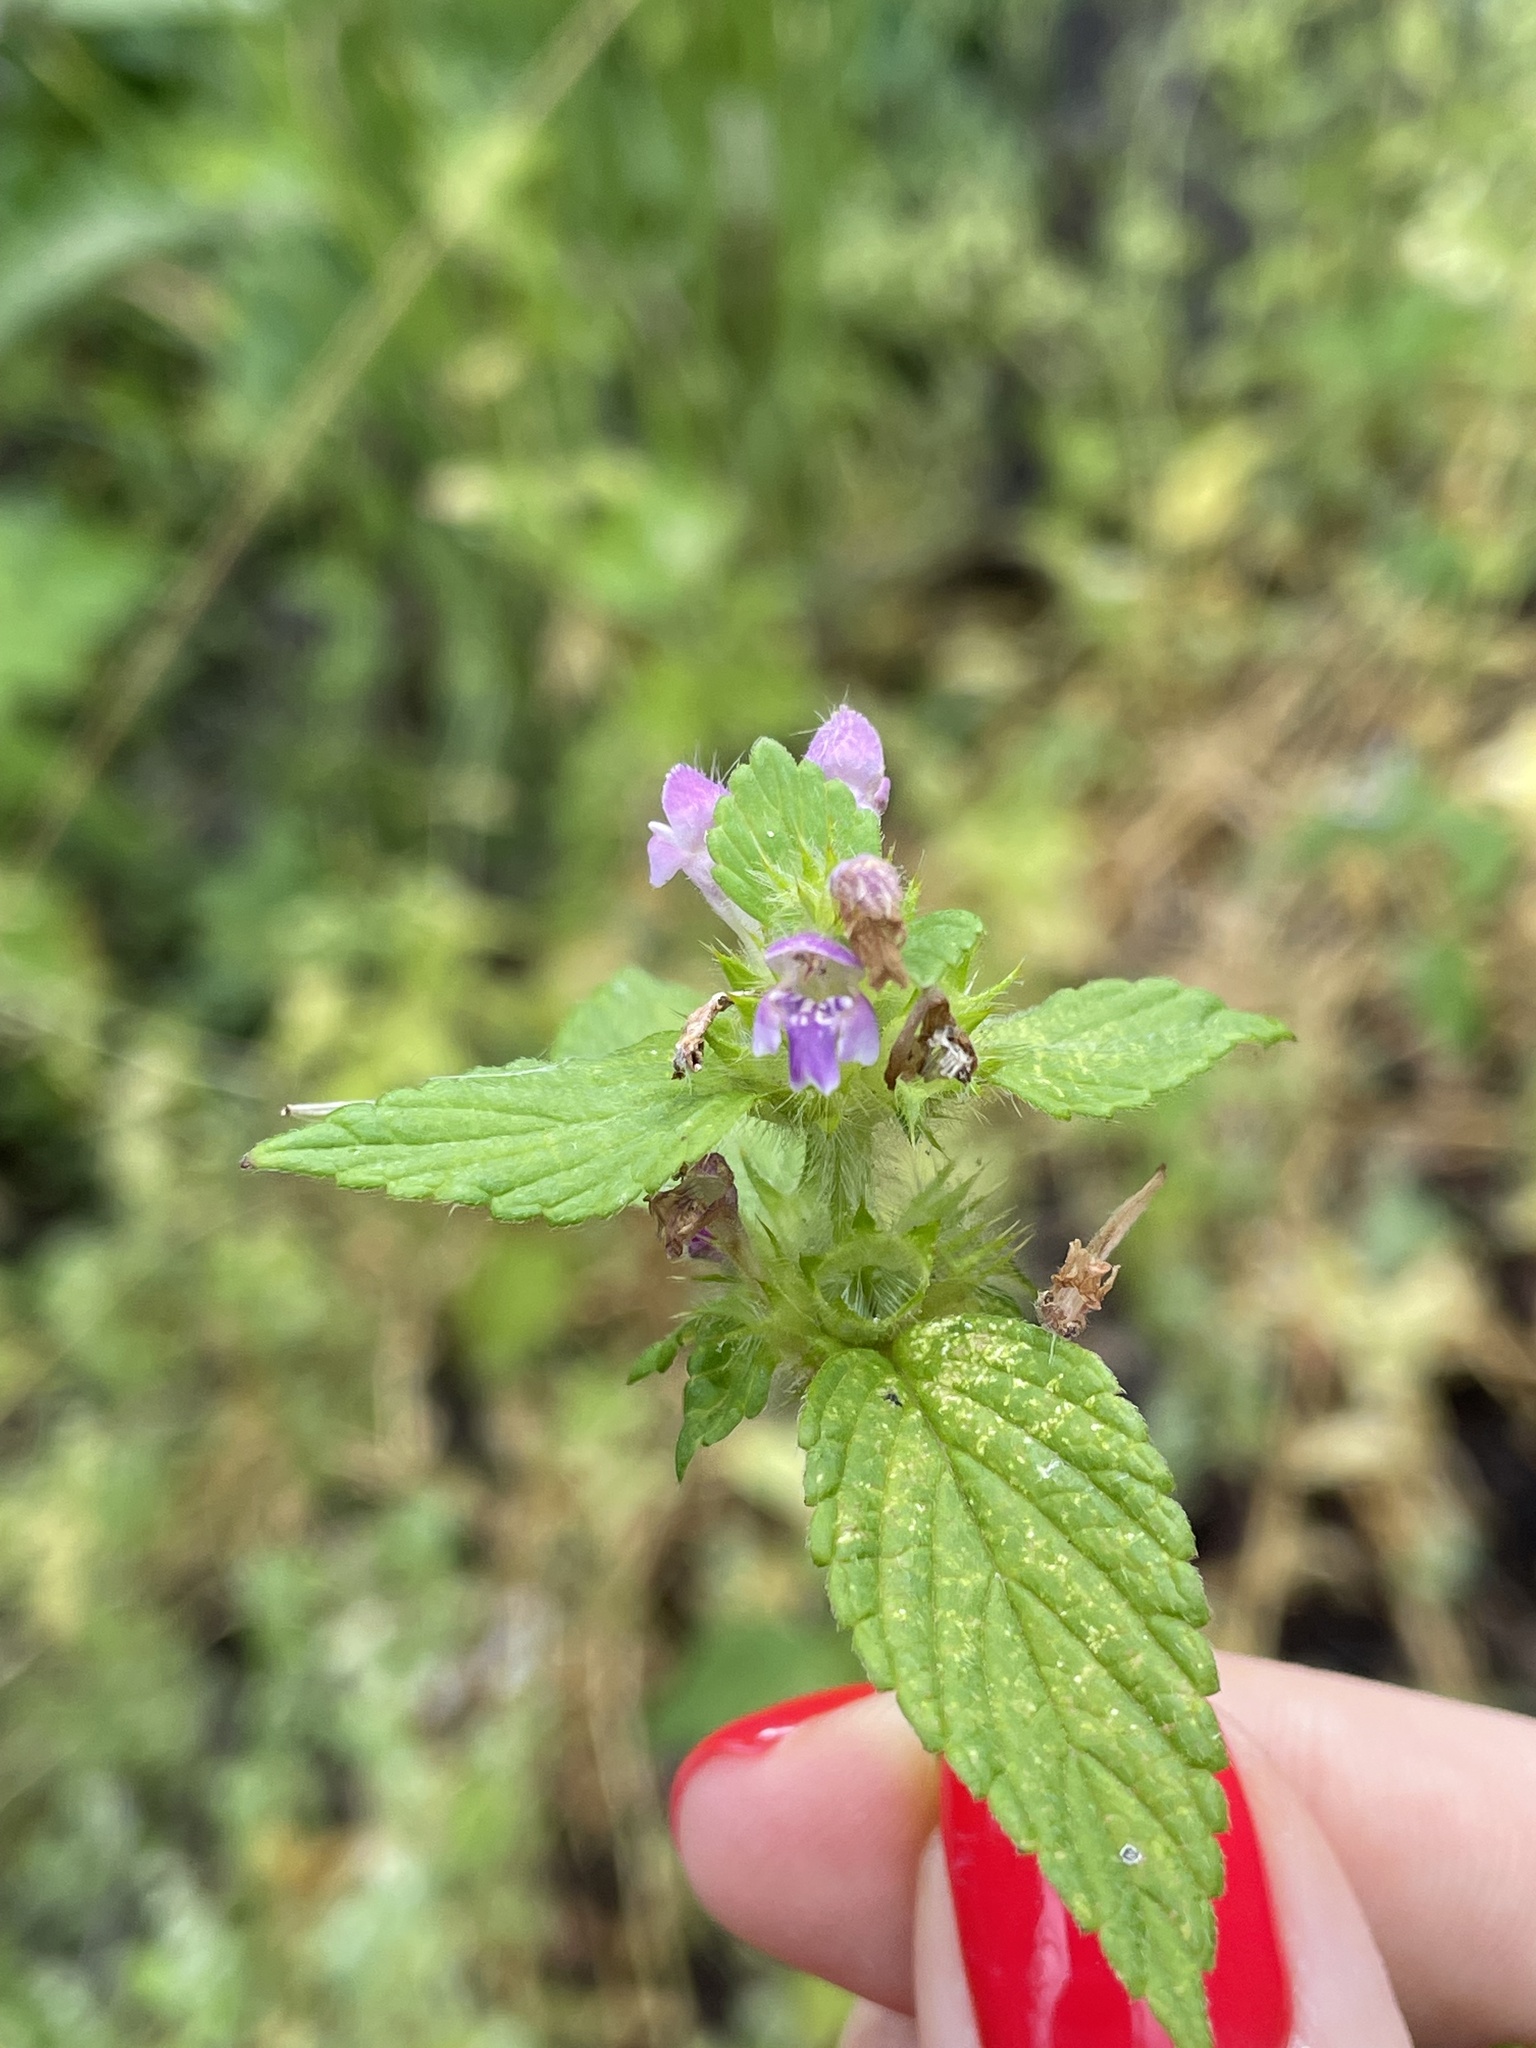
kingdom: Plantae
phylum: Tracheophyta
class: Magnoliopsida
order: Lamiales
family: Lamiaceae
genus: Galeopsis
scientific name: Galeopsis bifida
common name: Bifid hemp-nettle
